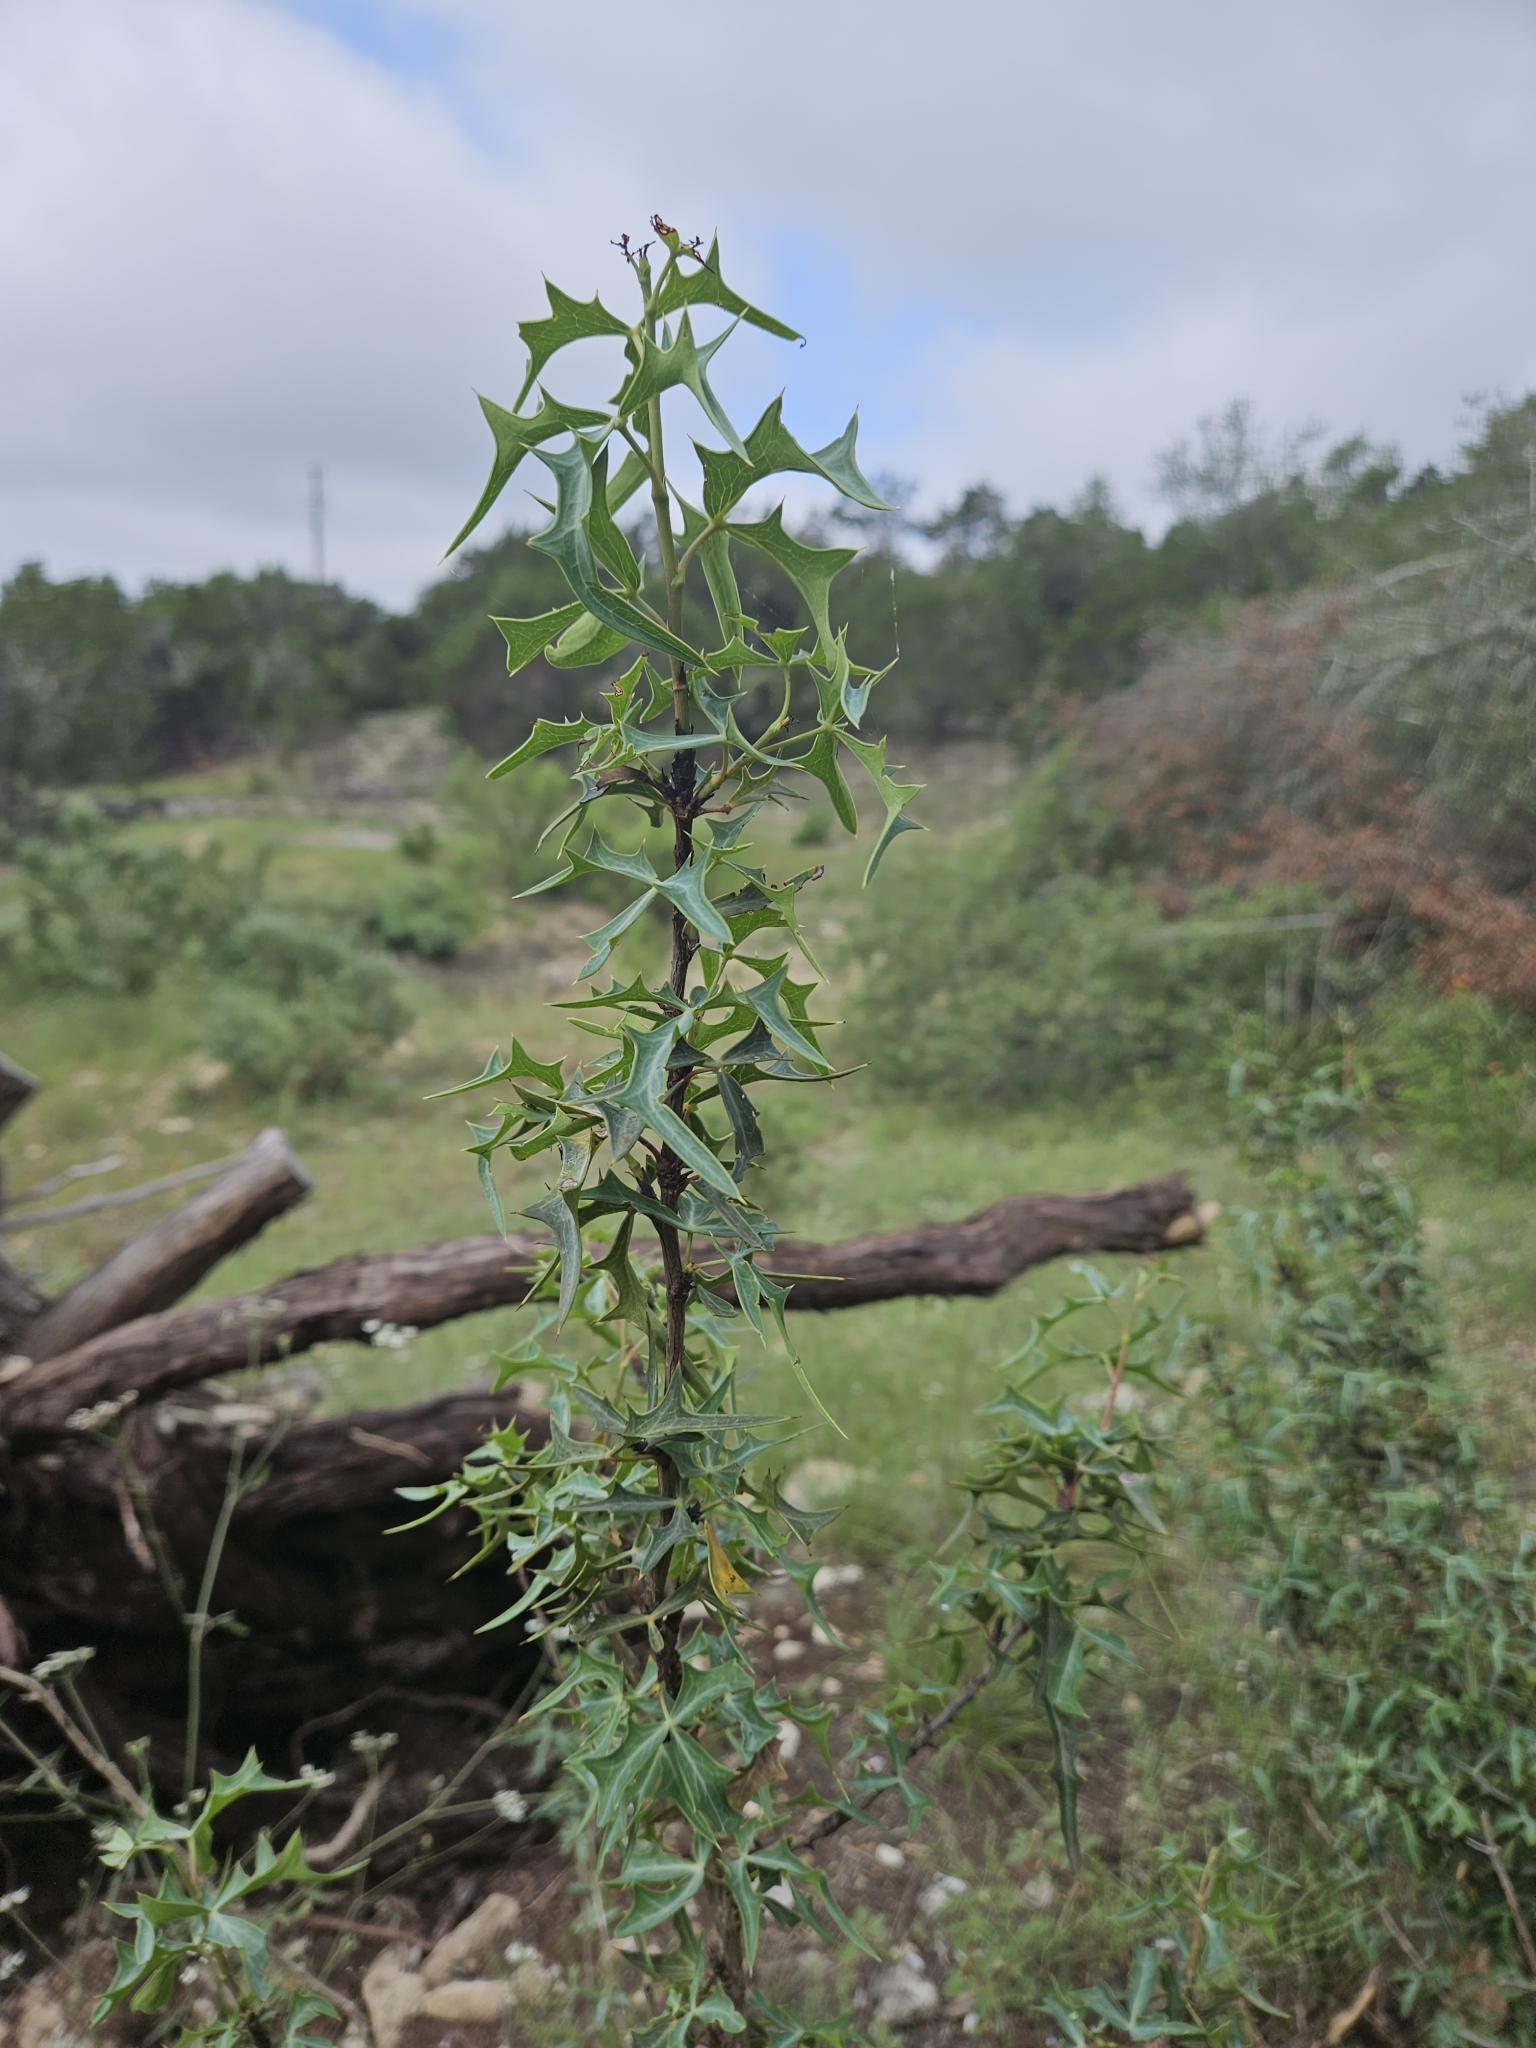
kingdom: Plantae
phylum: Tracheophyta
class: Magnoliopsida
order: Ranunculales
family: Berberidaceae
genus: Alloberberis
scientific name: Alloberberis trifoliolata
